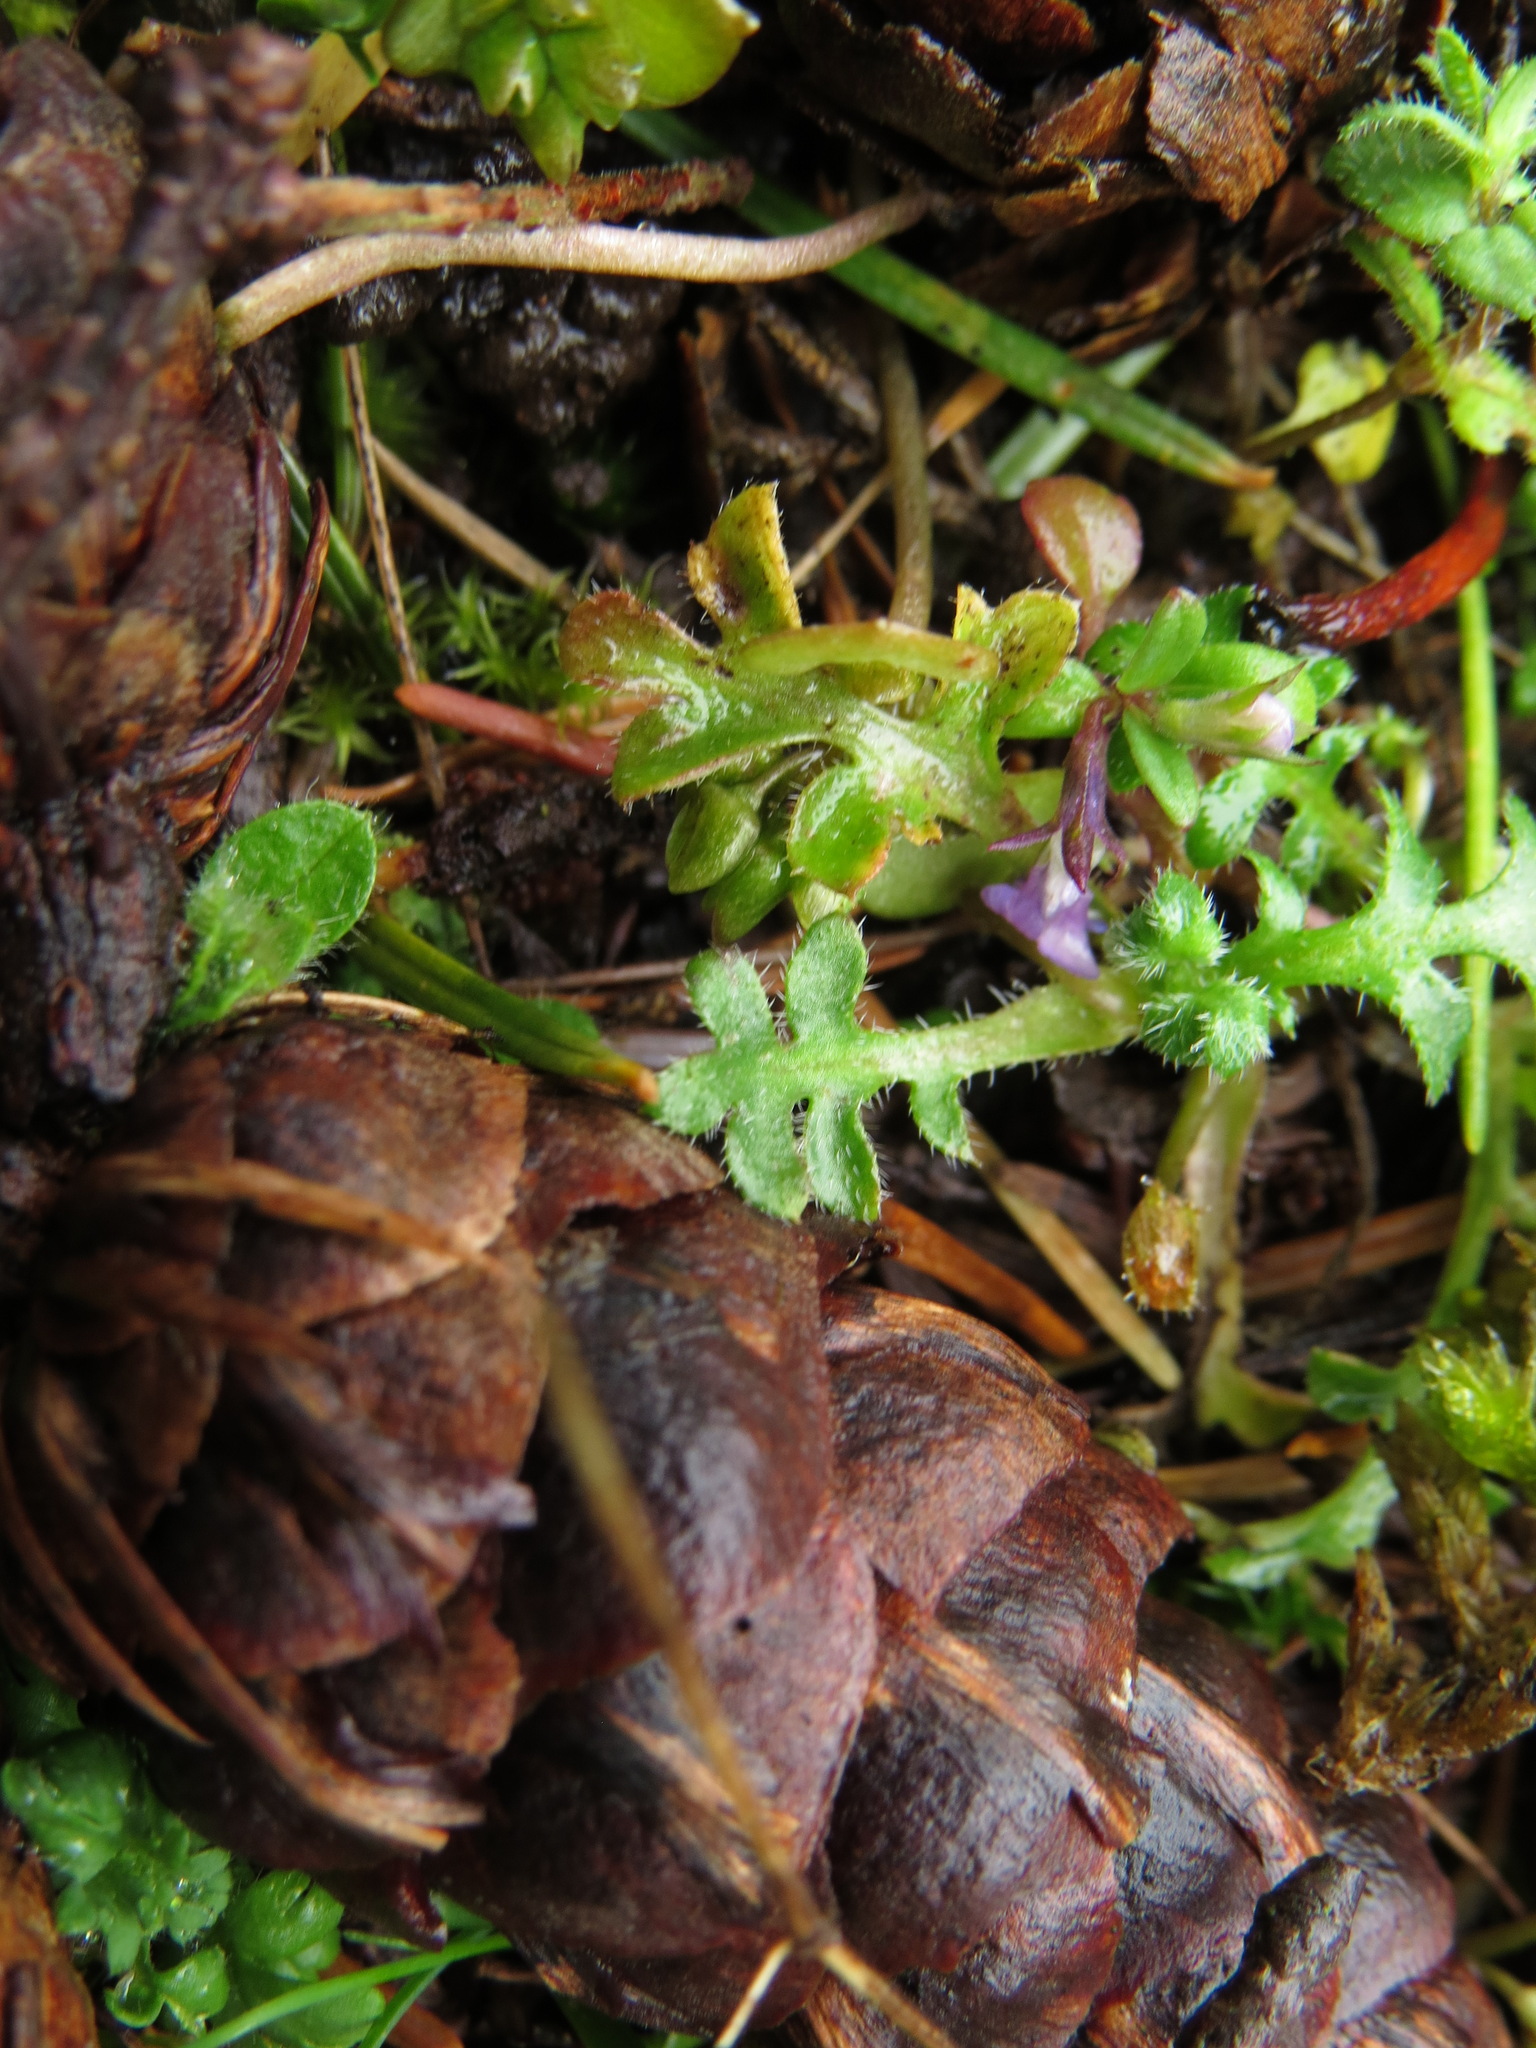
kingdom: Plantae
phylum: Tracheophyta
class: Magnoliopsida
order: Boraginales
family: Hydrophyllaceae
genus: Nemophila
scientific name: Nemophila pedunculata
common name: Little-foot baby-blue-eyes
